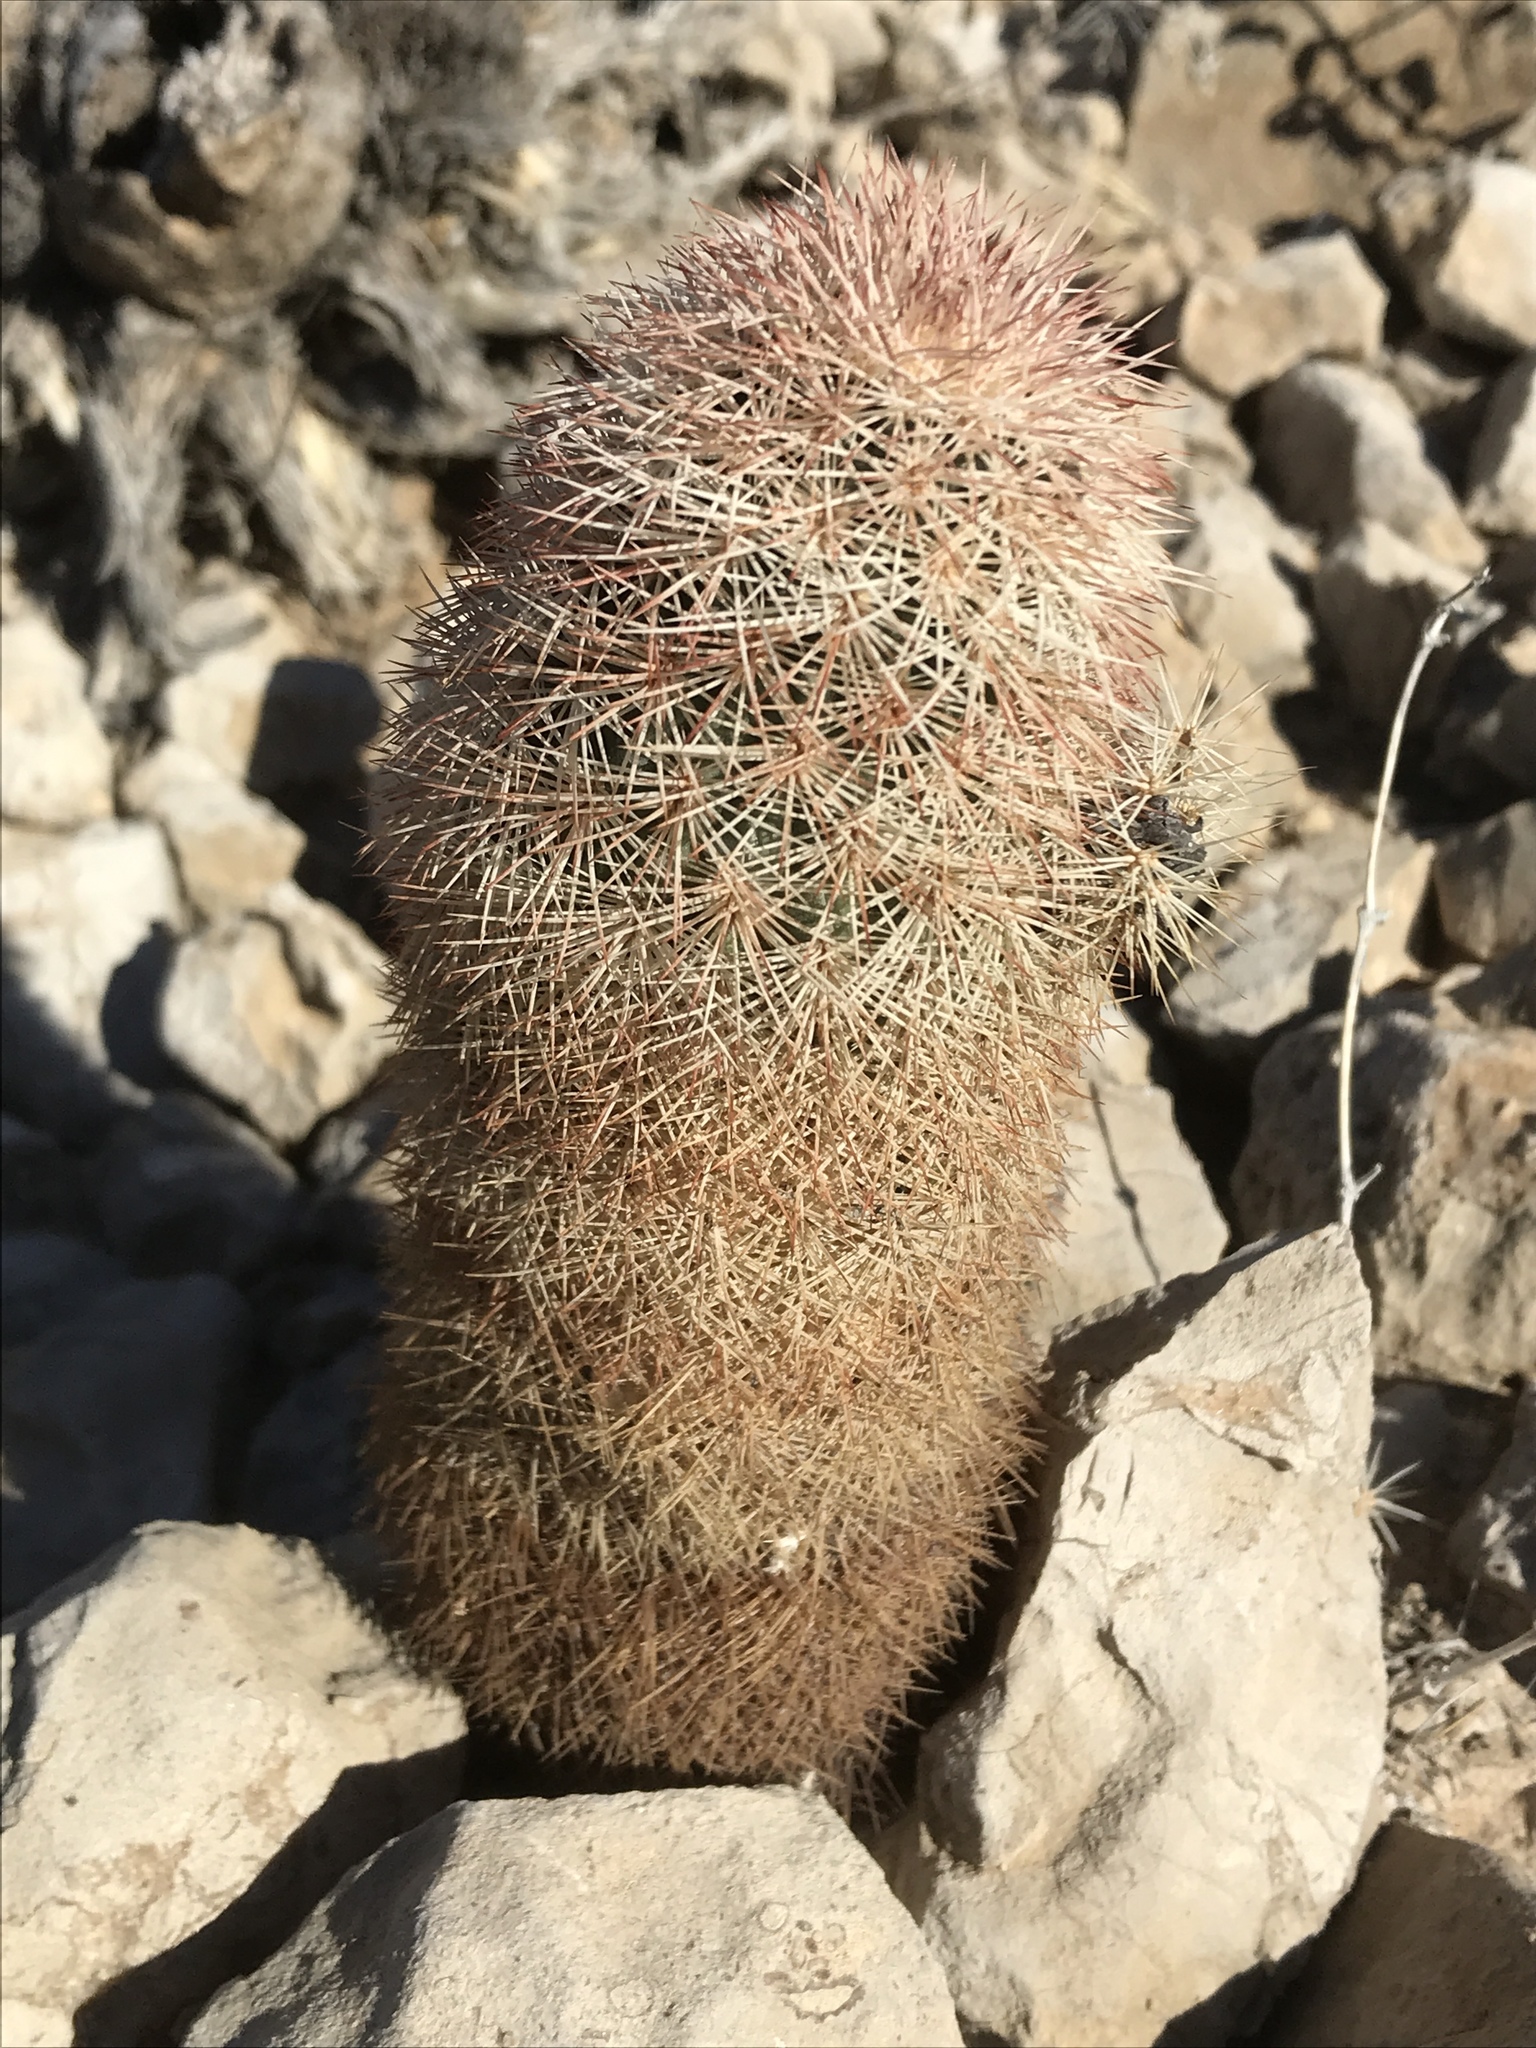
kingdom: Plantae
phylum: Tracheophyta
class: Magnoliopsida
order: Caryophyllales
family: Cactaceae
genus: Echinocereus
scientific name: Echinocereus dasyacanthus
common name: Spiny hedgehog cactus
